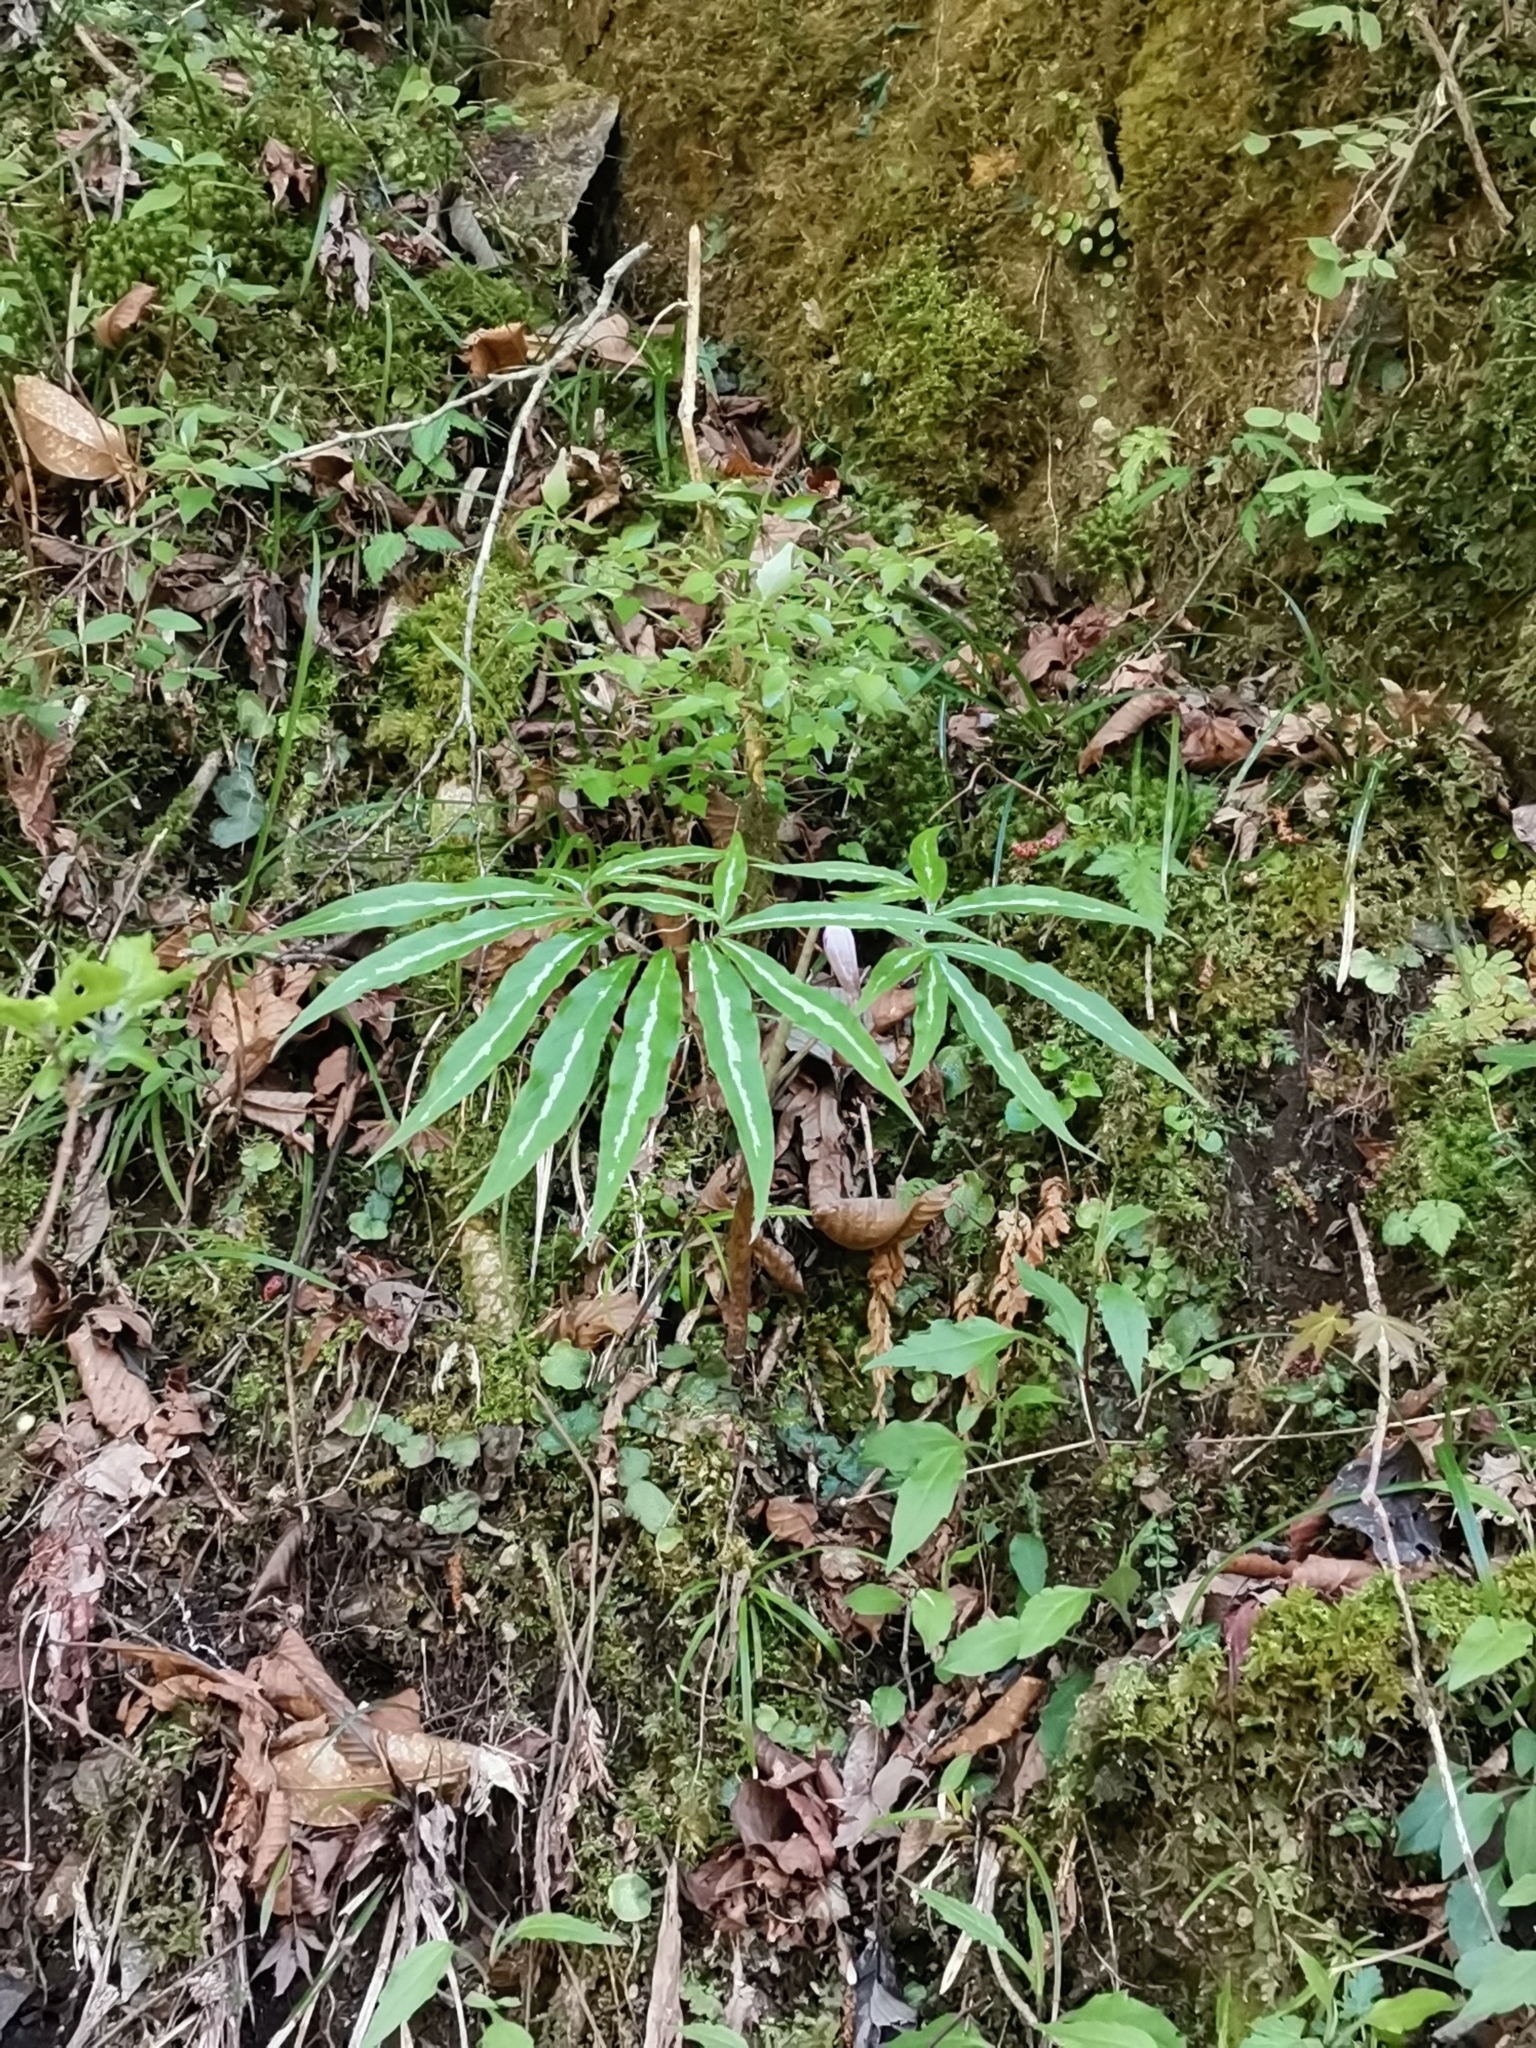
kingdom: Plantae
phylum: Tracheophyta
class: Liliopsida
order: Alismatales
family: Araceae
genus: Arisaema
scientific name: Arisaema undulatifolium
